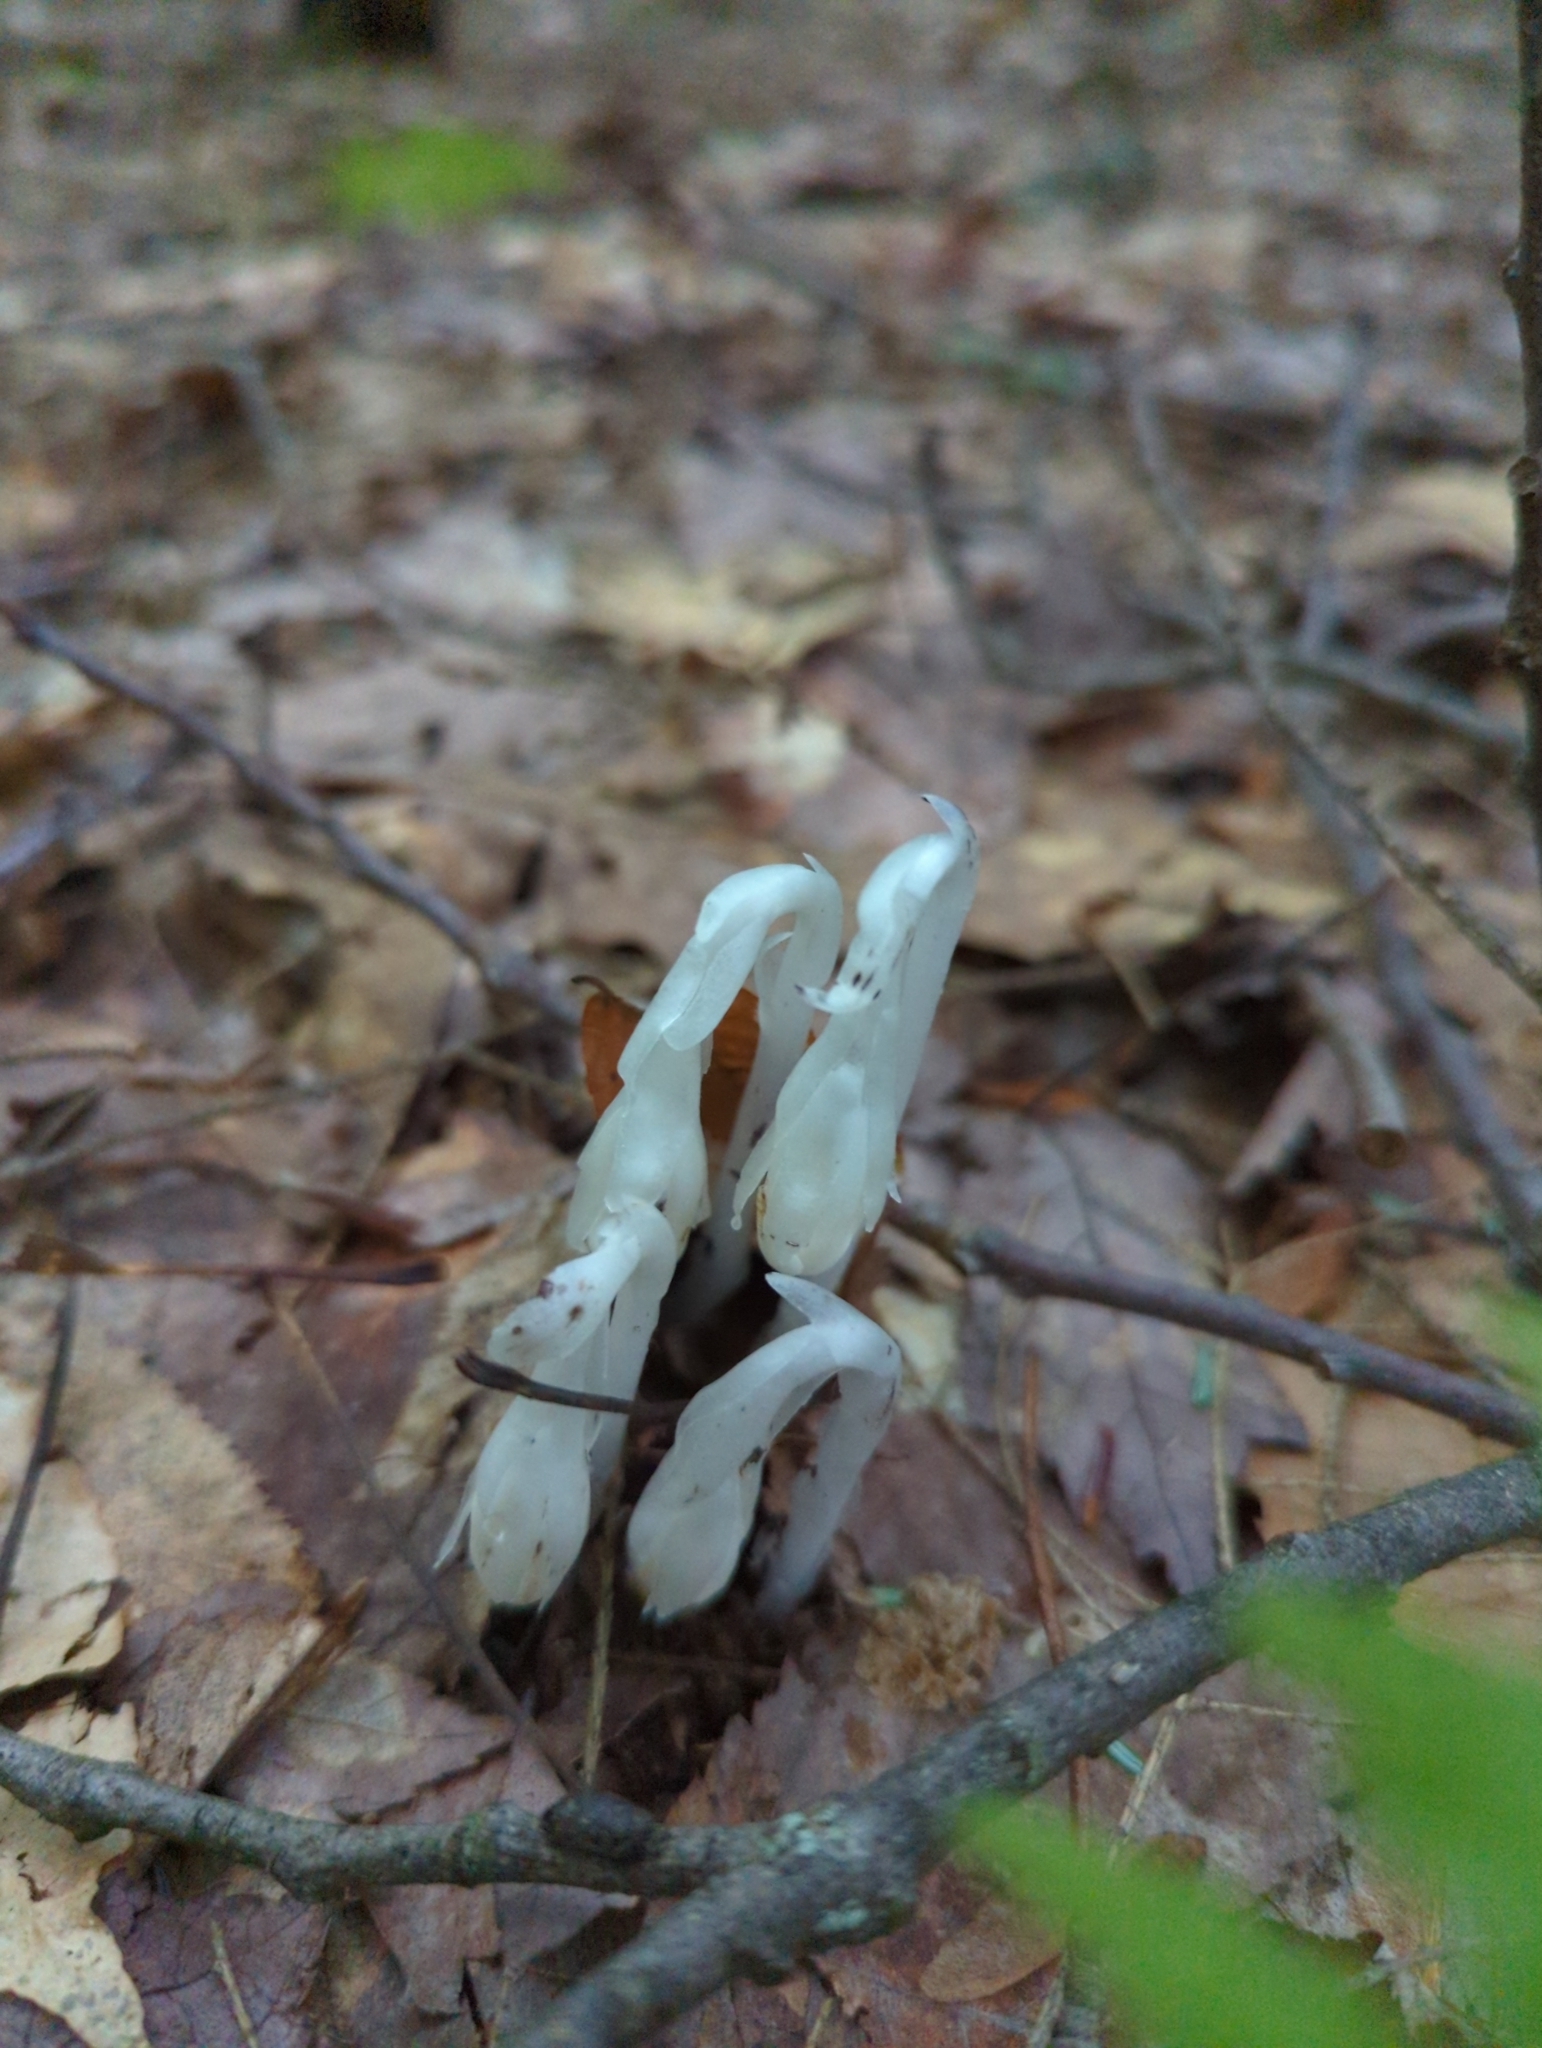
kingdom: Plantae
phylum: Tracheophyta
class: Magnoliopsida
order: Ericales
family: Ericaceae
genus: Monotropa
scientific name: Monotropa uniflora
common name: Convulsion root
